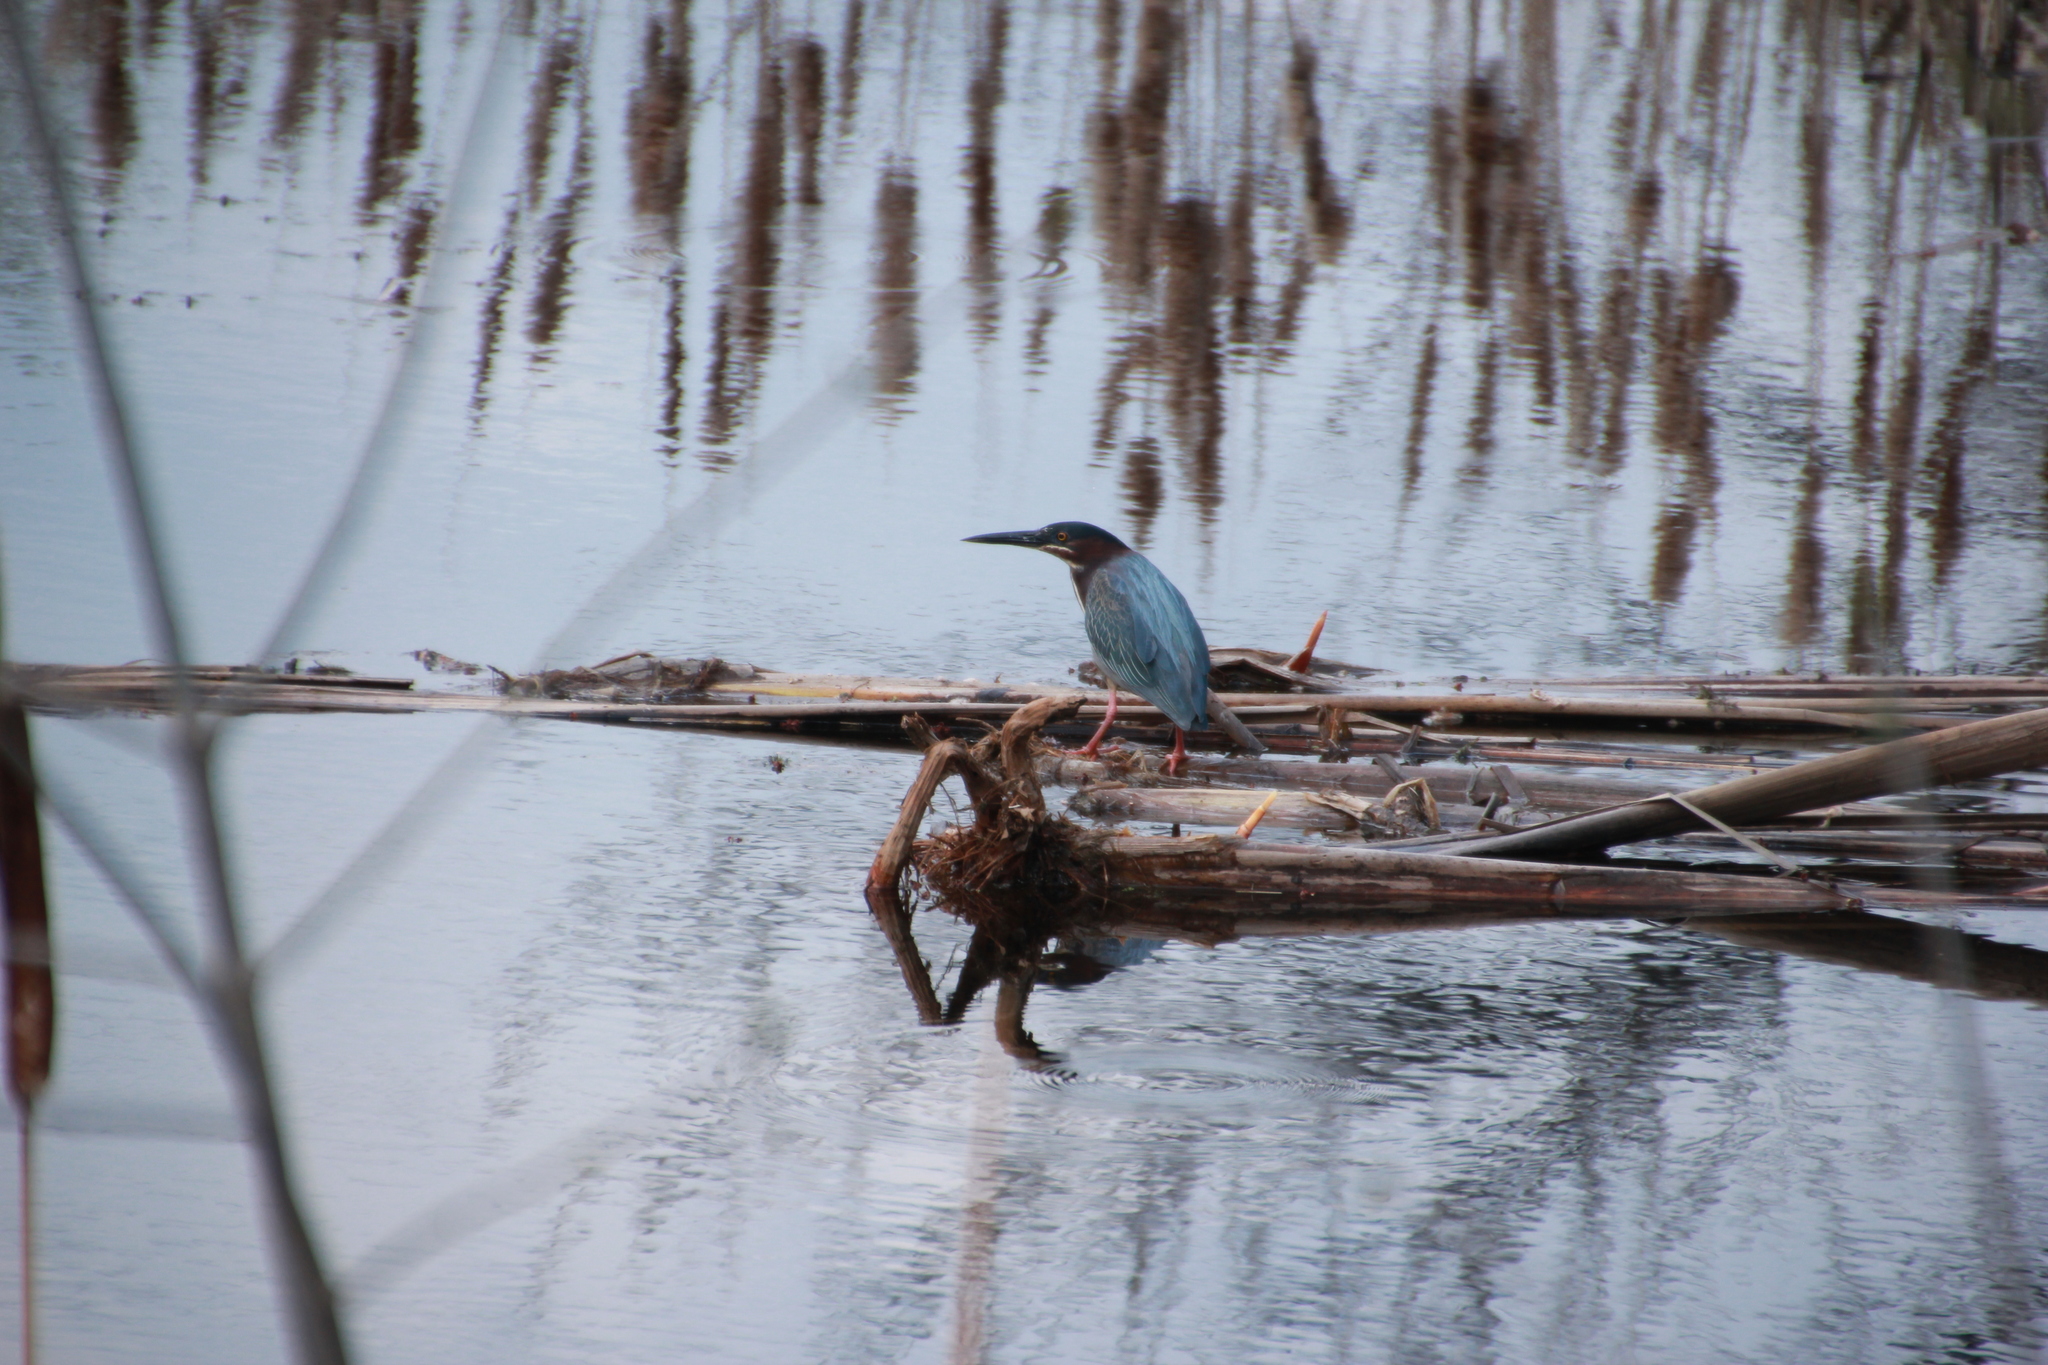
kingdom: Animalia
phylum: Chordata
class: Aves
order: Pelecaniformes
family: Ardeidae
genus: Butorides
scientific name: Butorides virescens
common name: Green heron
